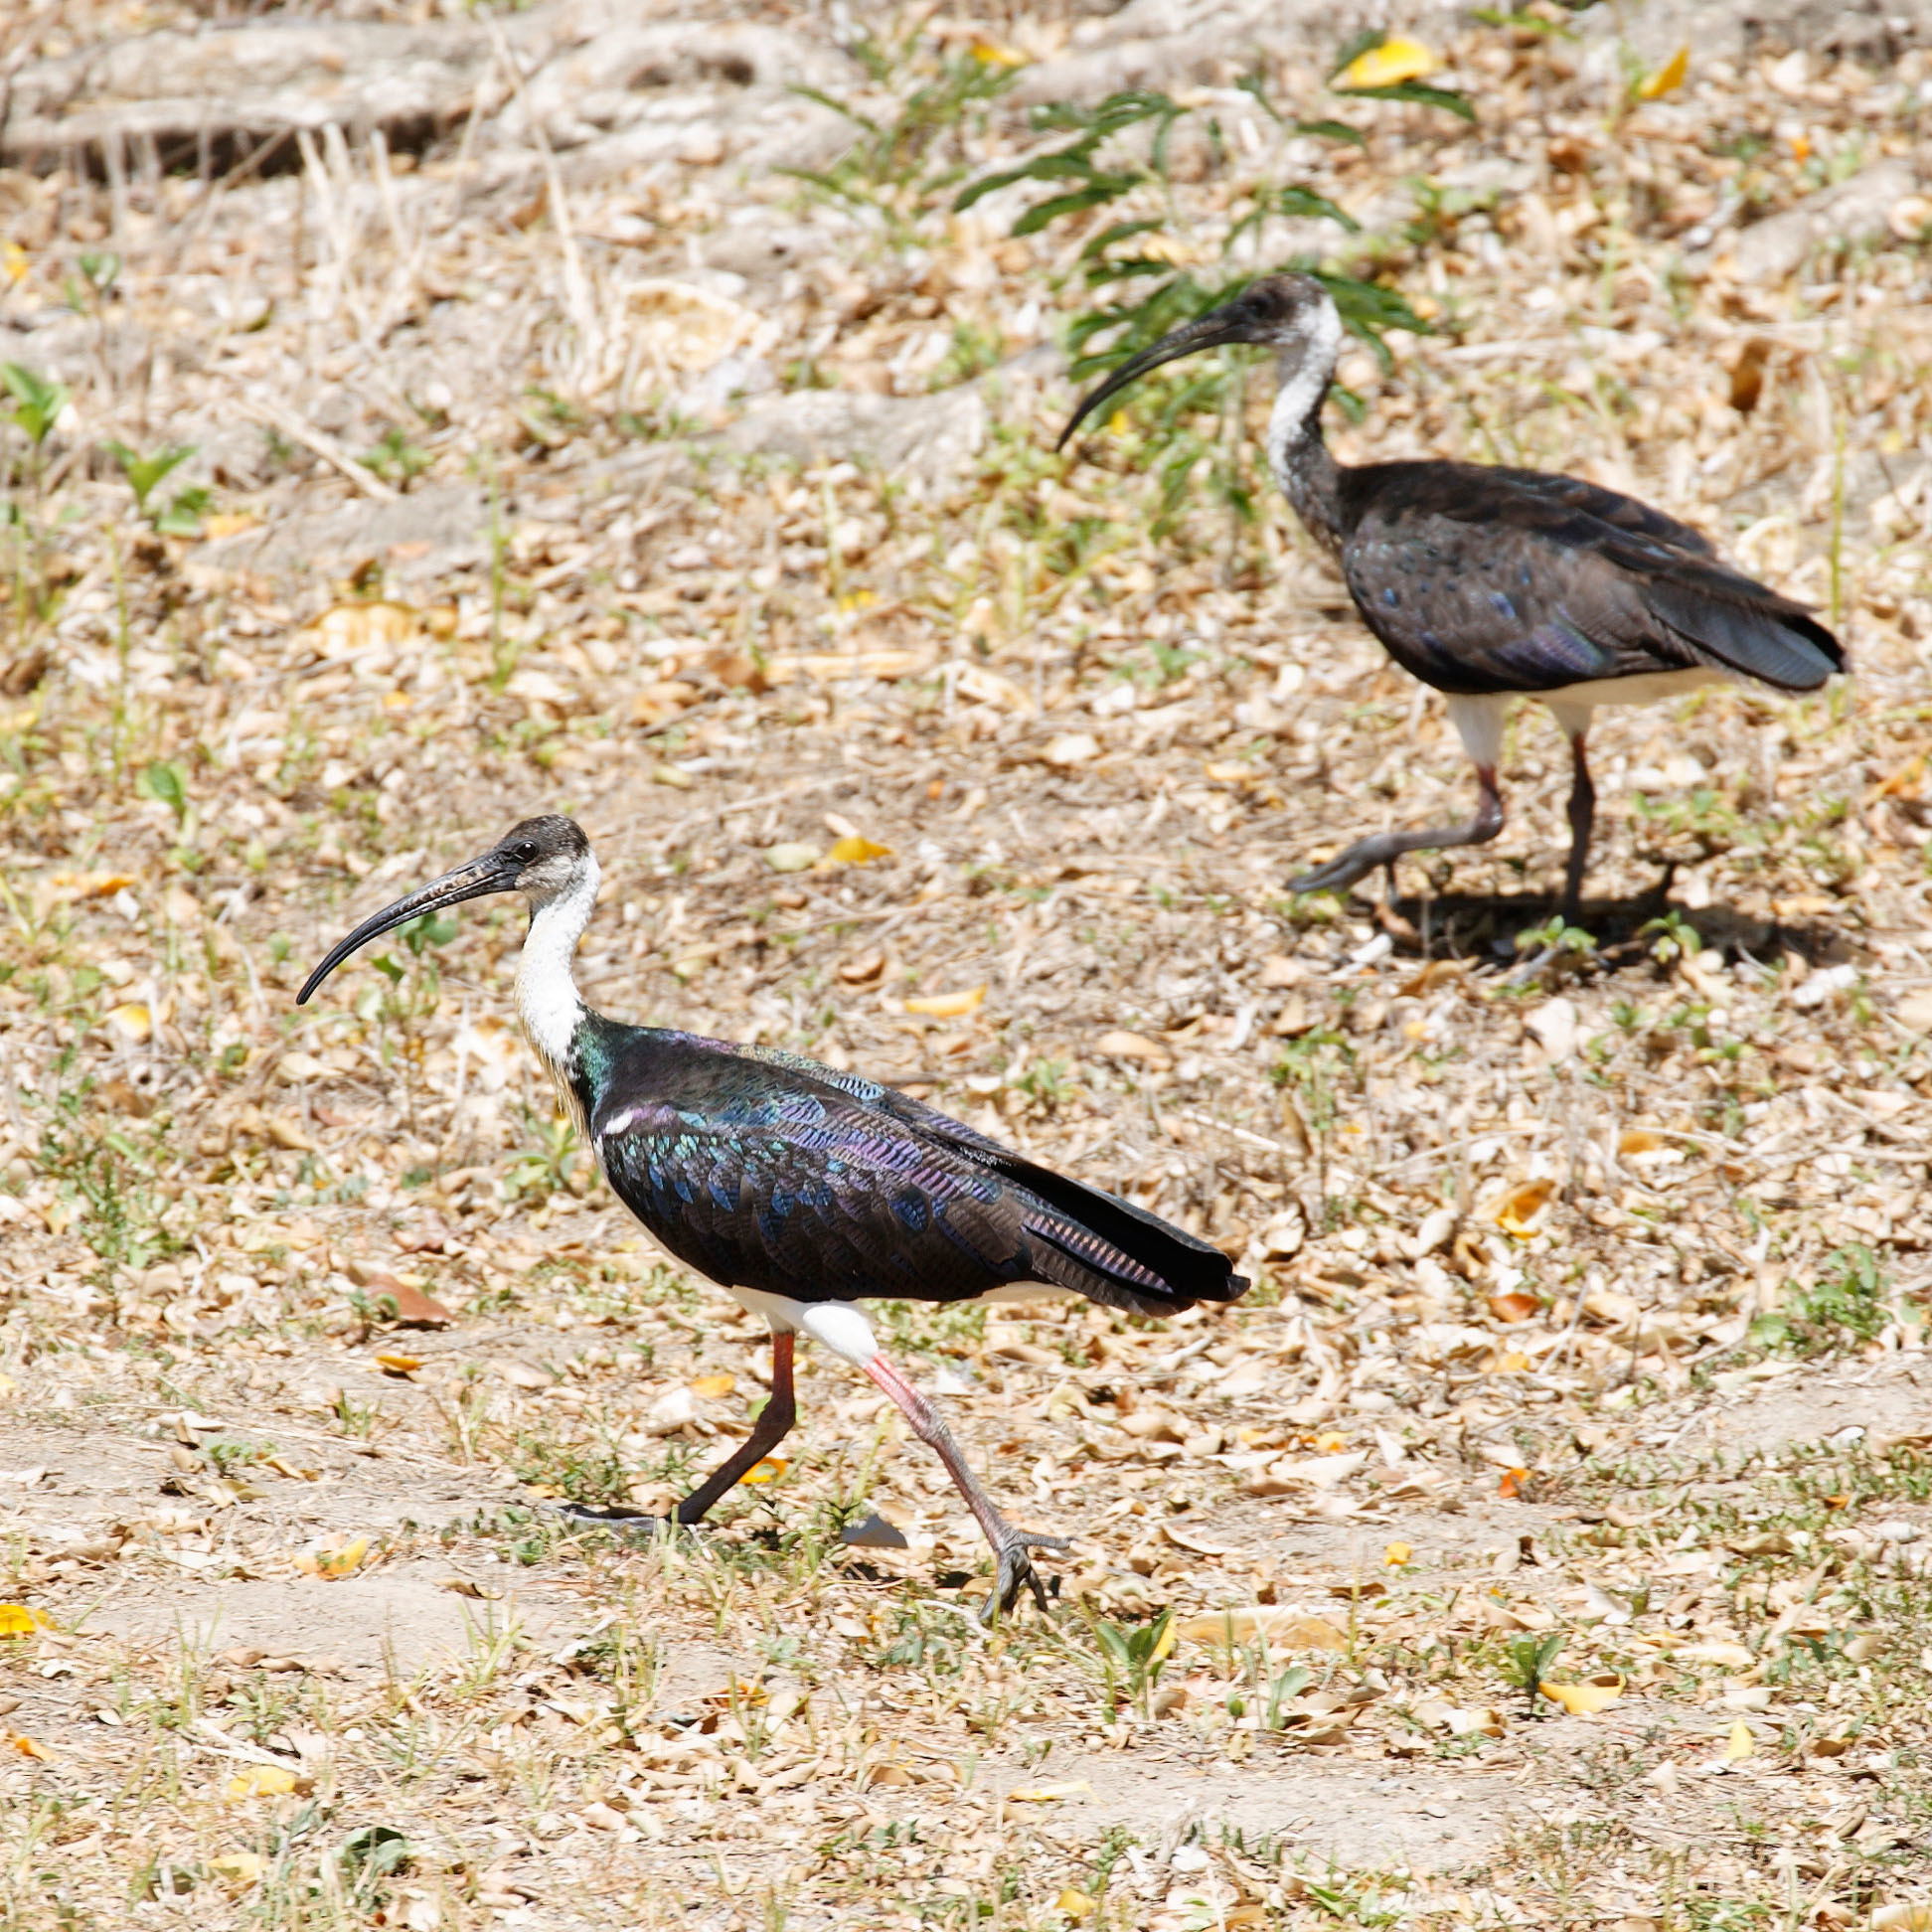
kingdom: Animalia
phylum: Chordata
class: Aves
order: Pelecaniformes
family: Threskiornithidae
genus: Threskiornis
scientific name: Threskiornis spinicollis
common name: Straw-necked ibis
